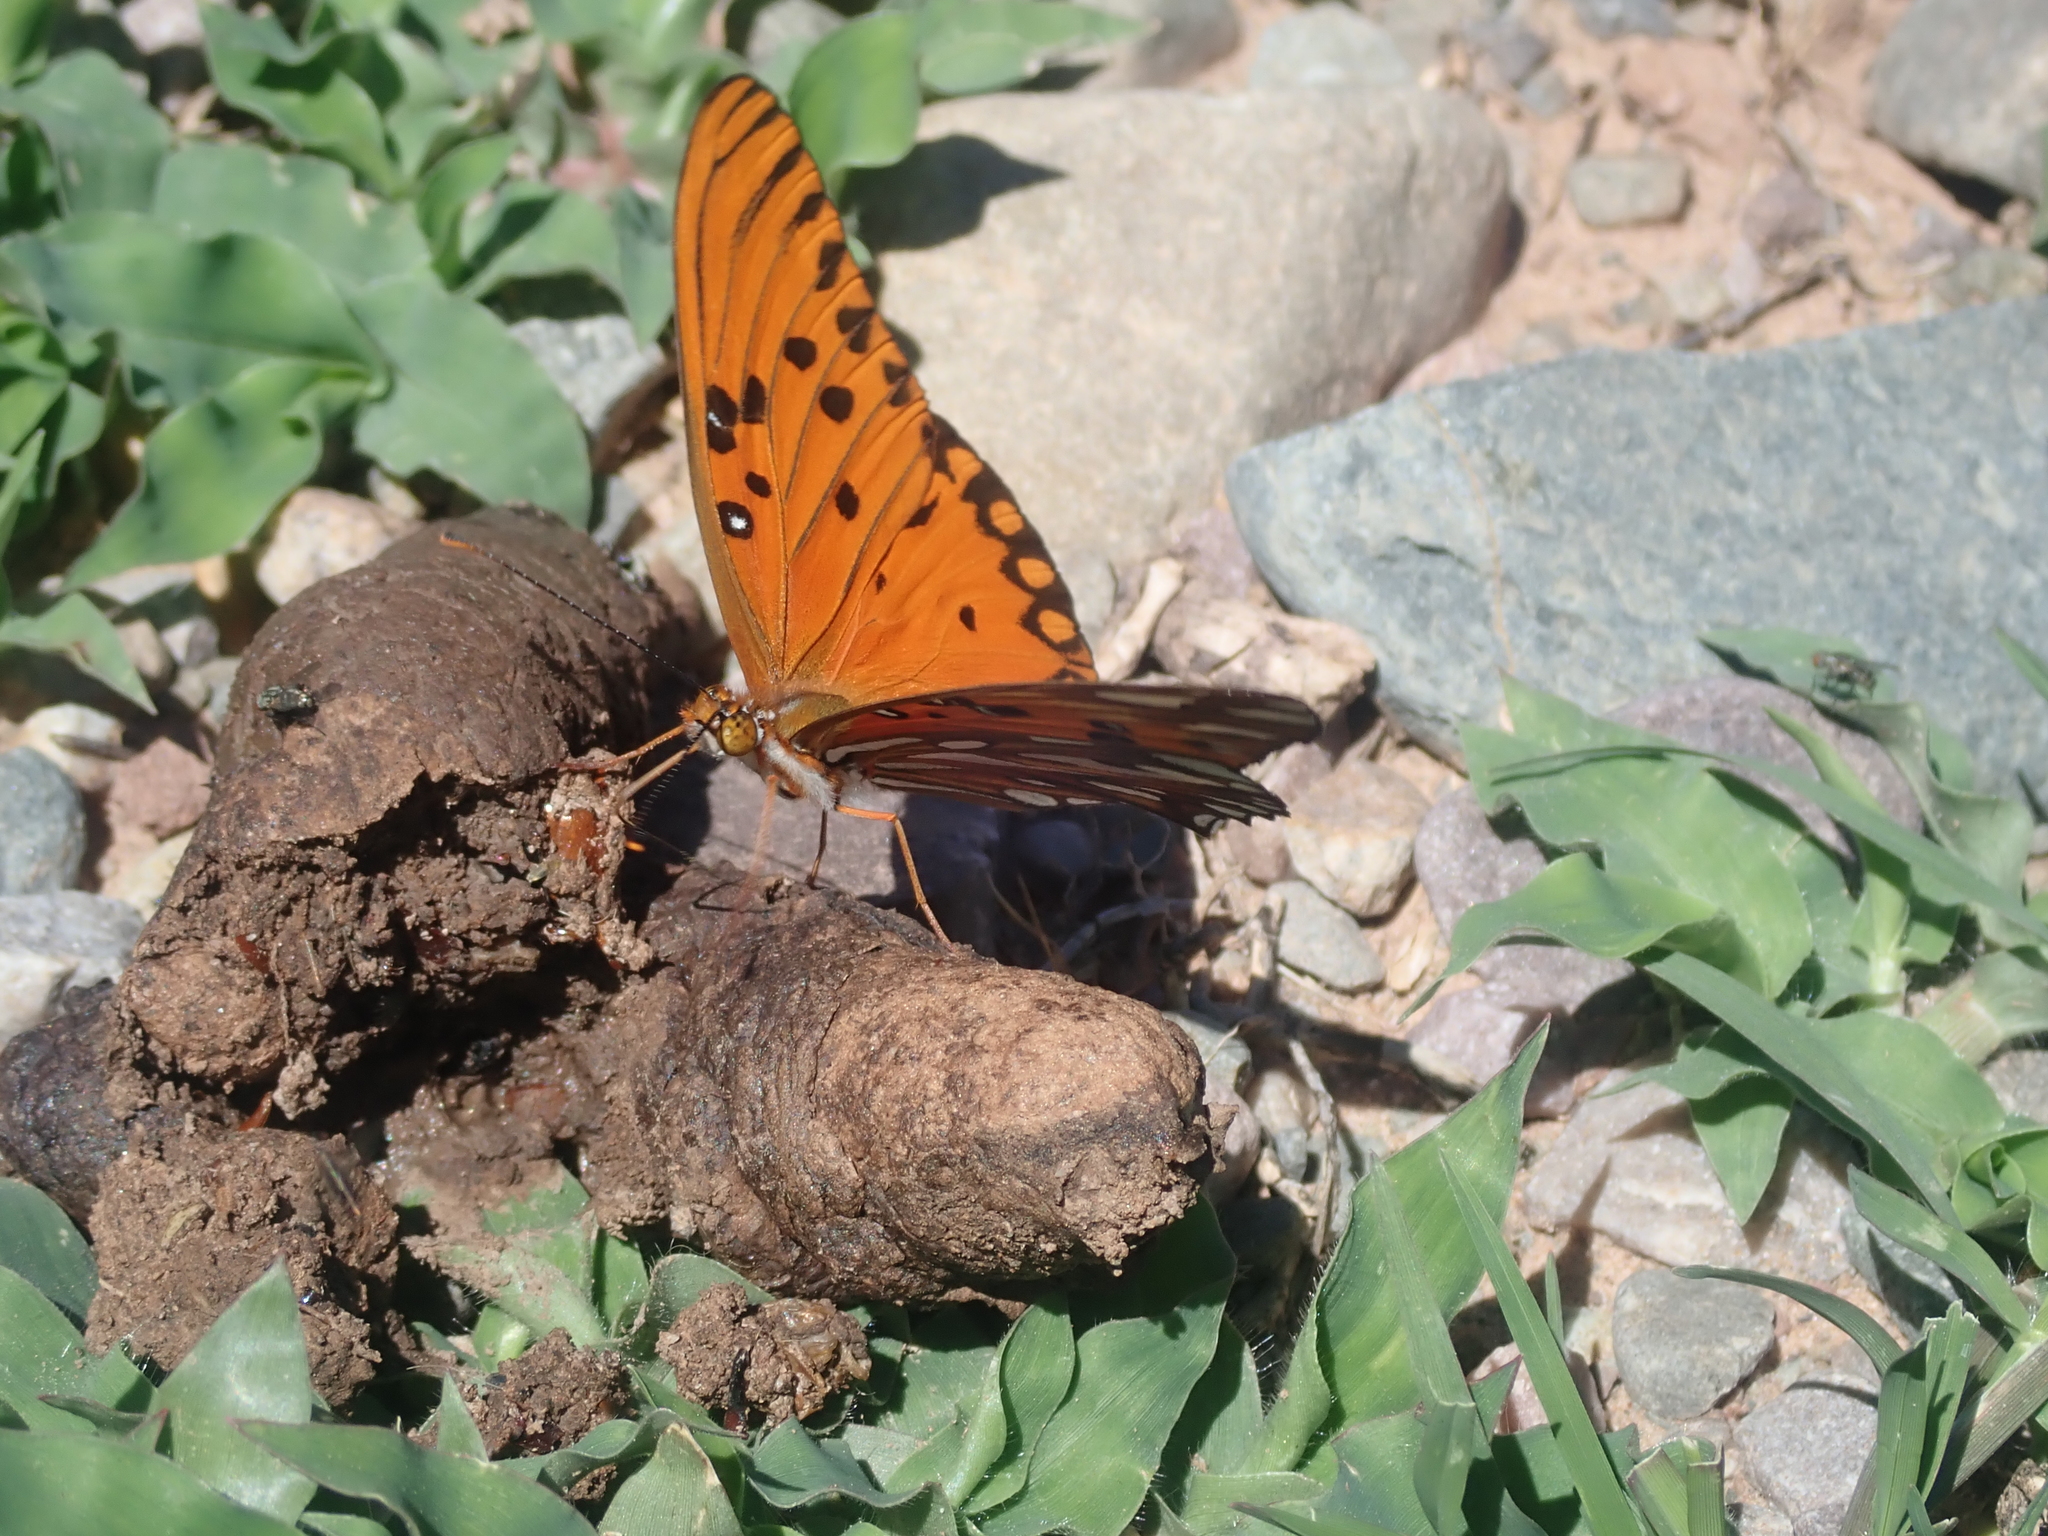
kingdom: Animalia
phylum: Arthropoda
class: Insecta
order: Lepidoptera
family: Nymphalidae
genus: Dione
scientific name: Dione vanillae
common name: Gulf fritillary
